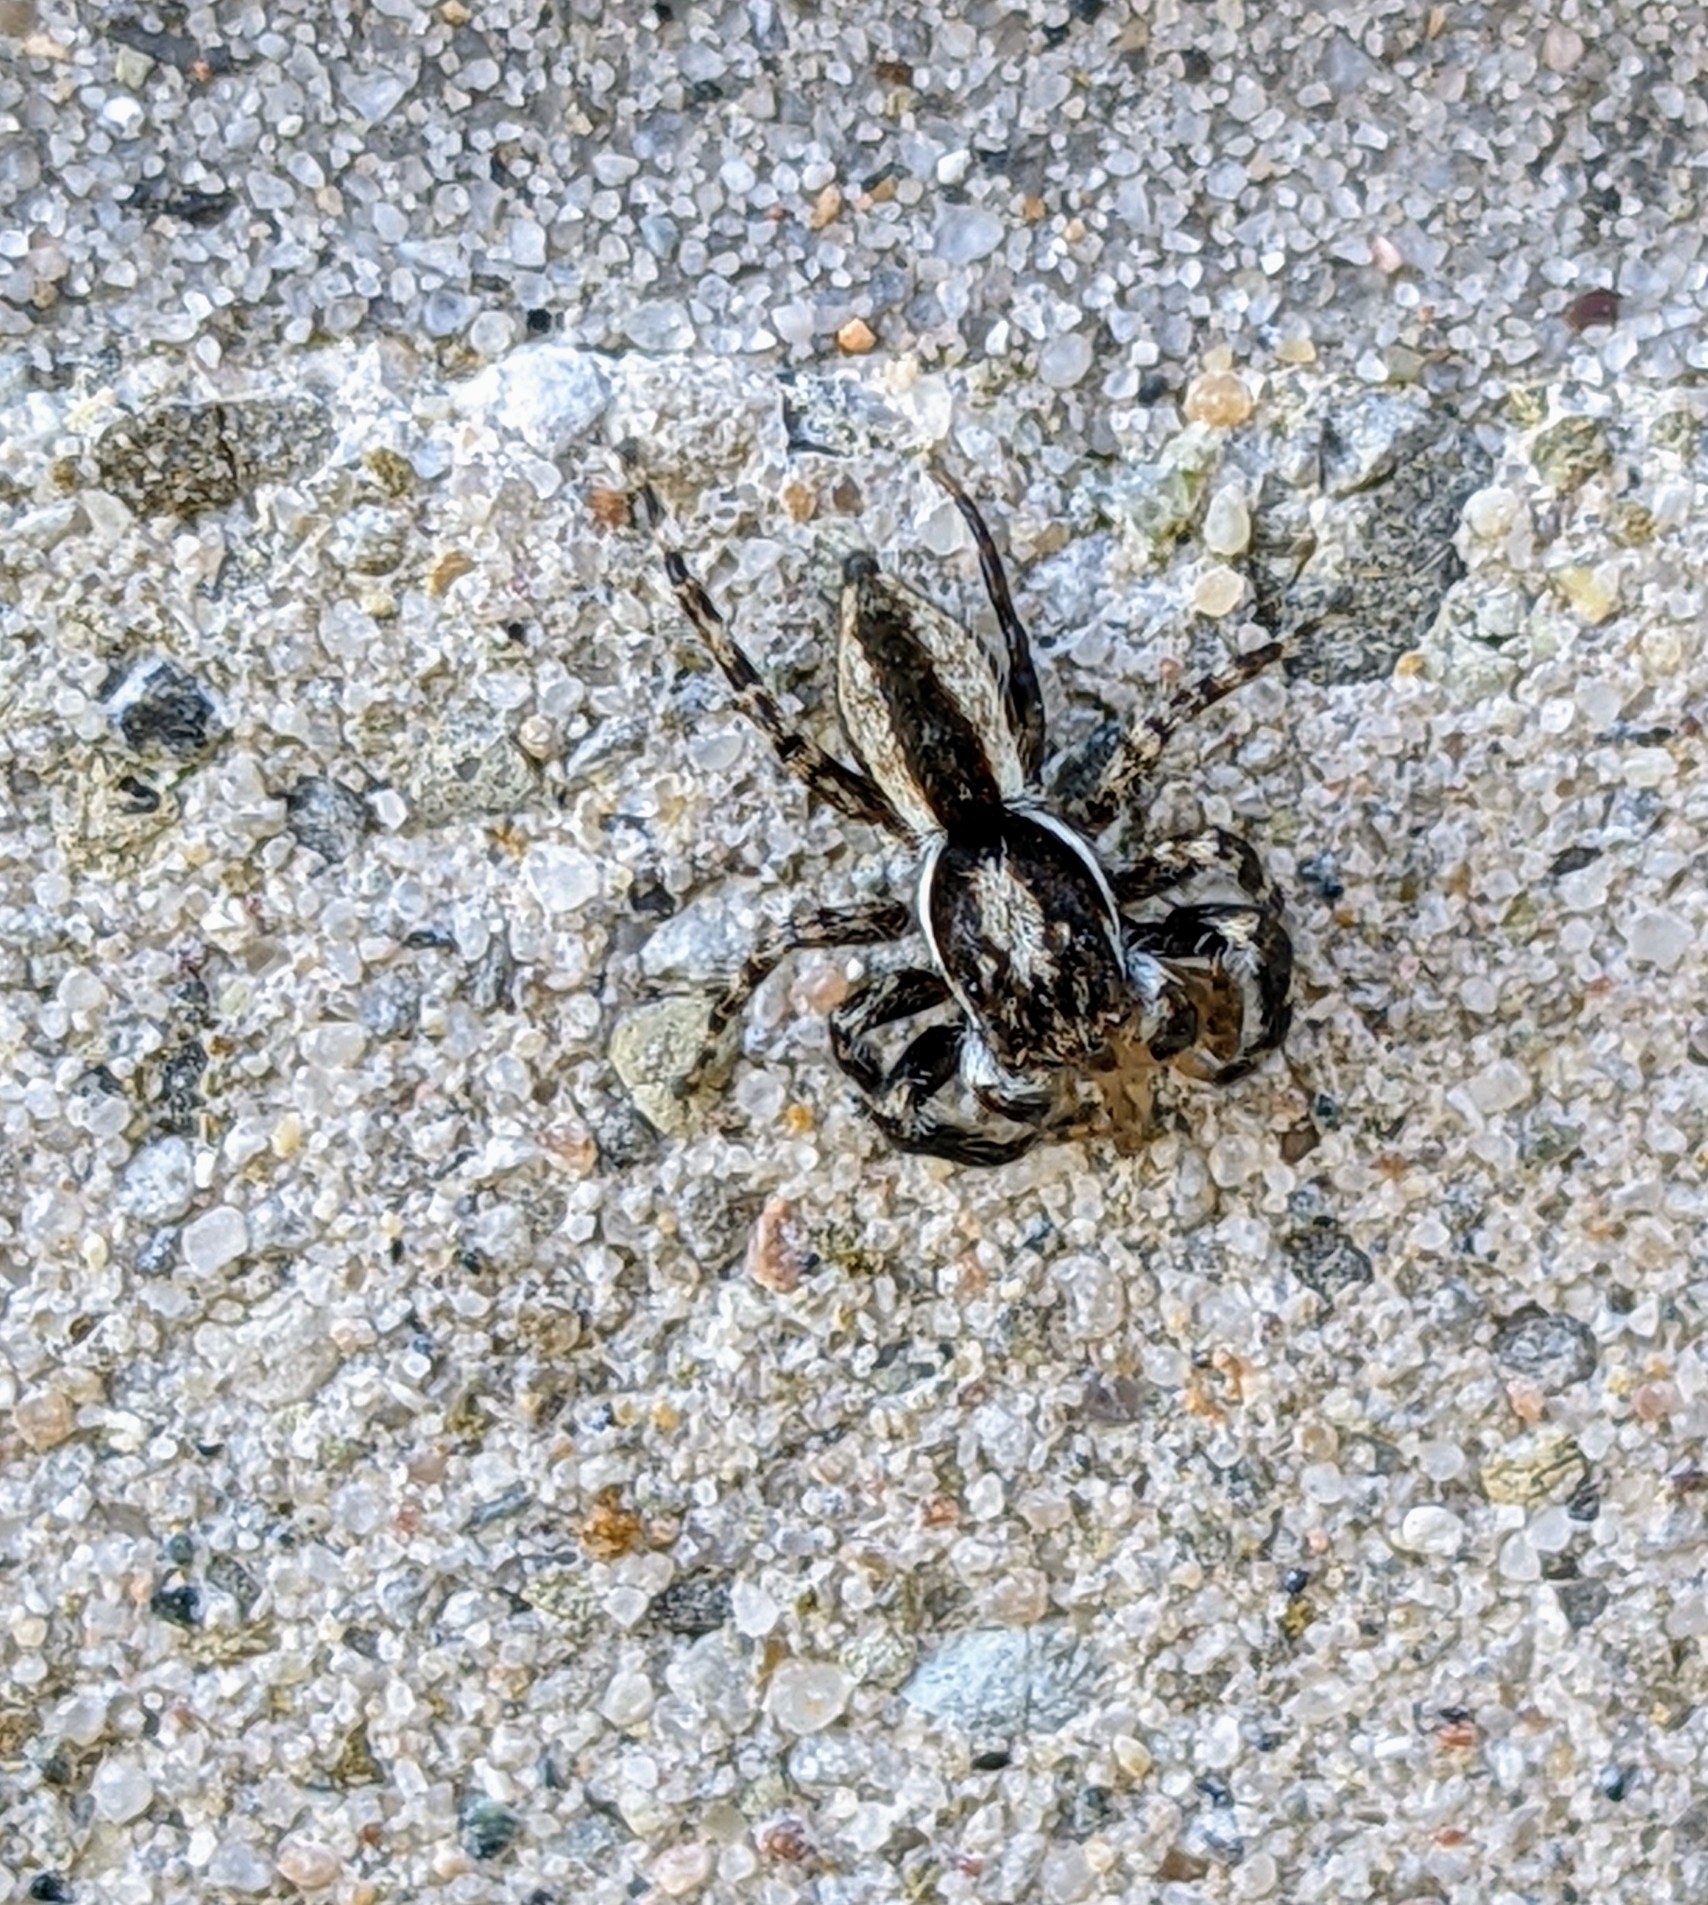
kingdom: Animalia
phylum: Arthropoda
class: Arachnida
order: Araneae
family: Salticidae
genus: Menemerus
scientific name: Menemerus bivittatus
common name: Gray wall jumper
